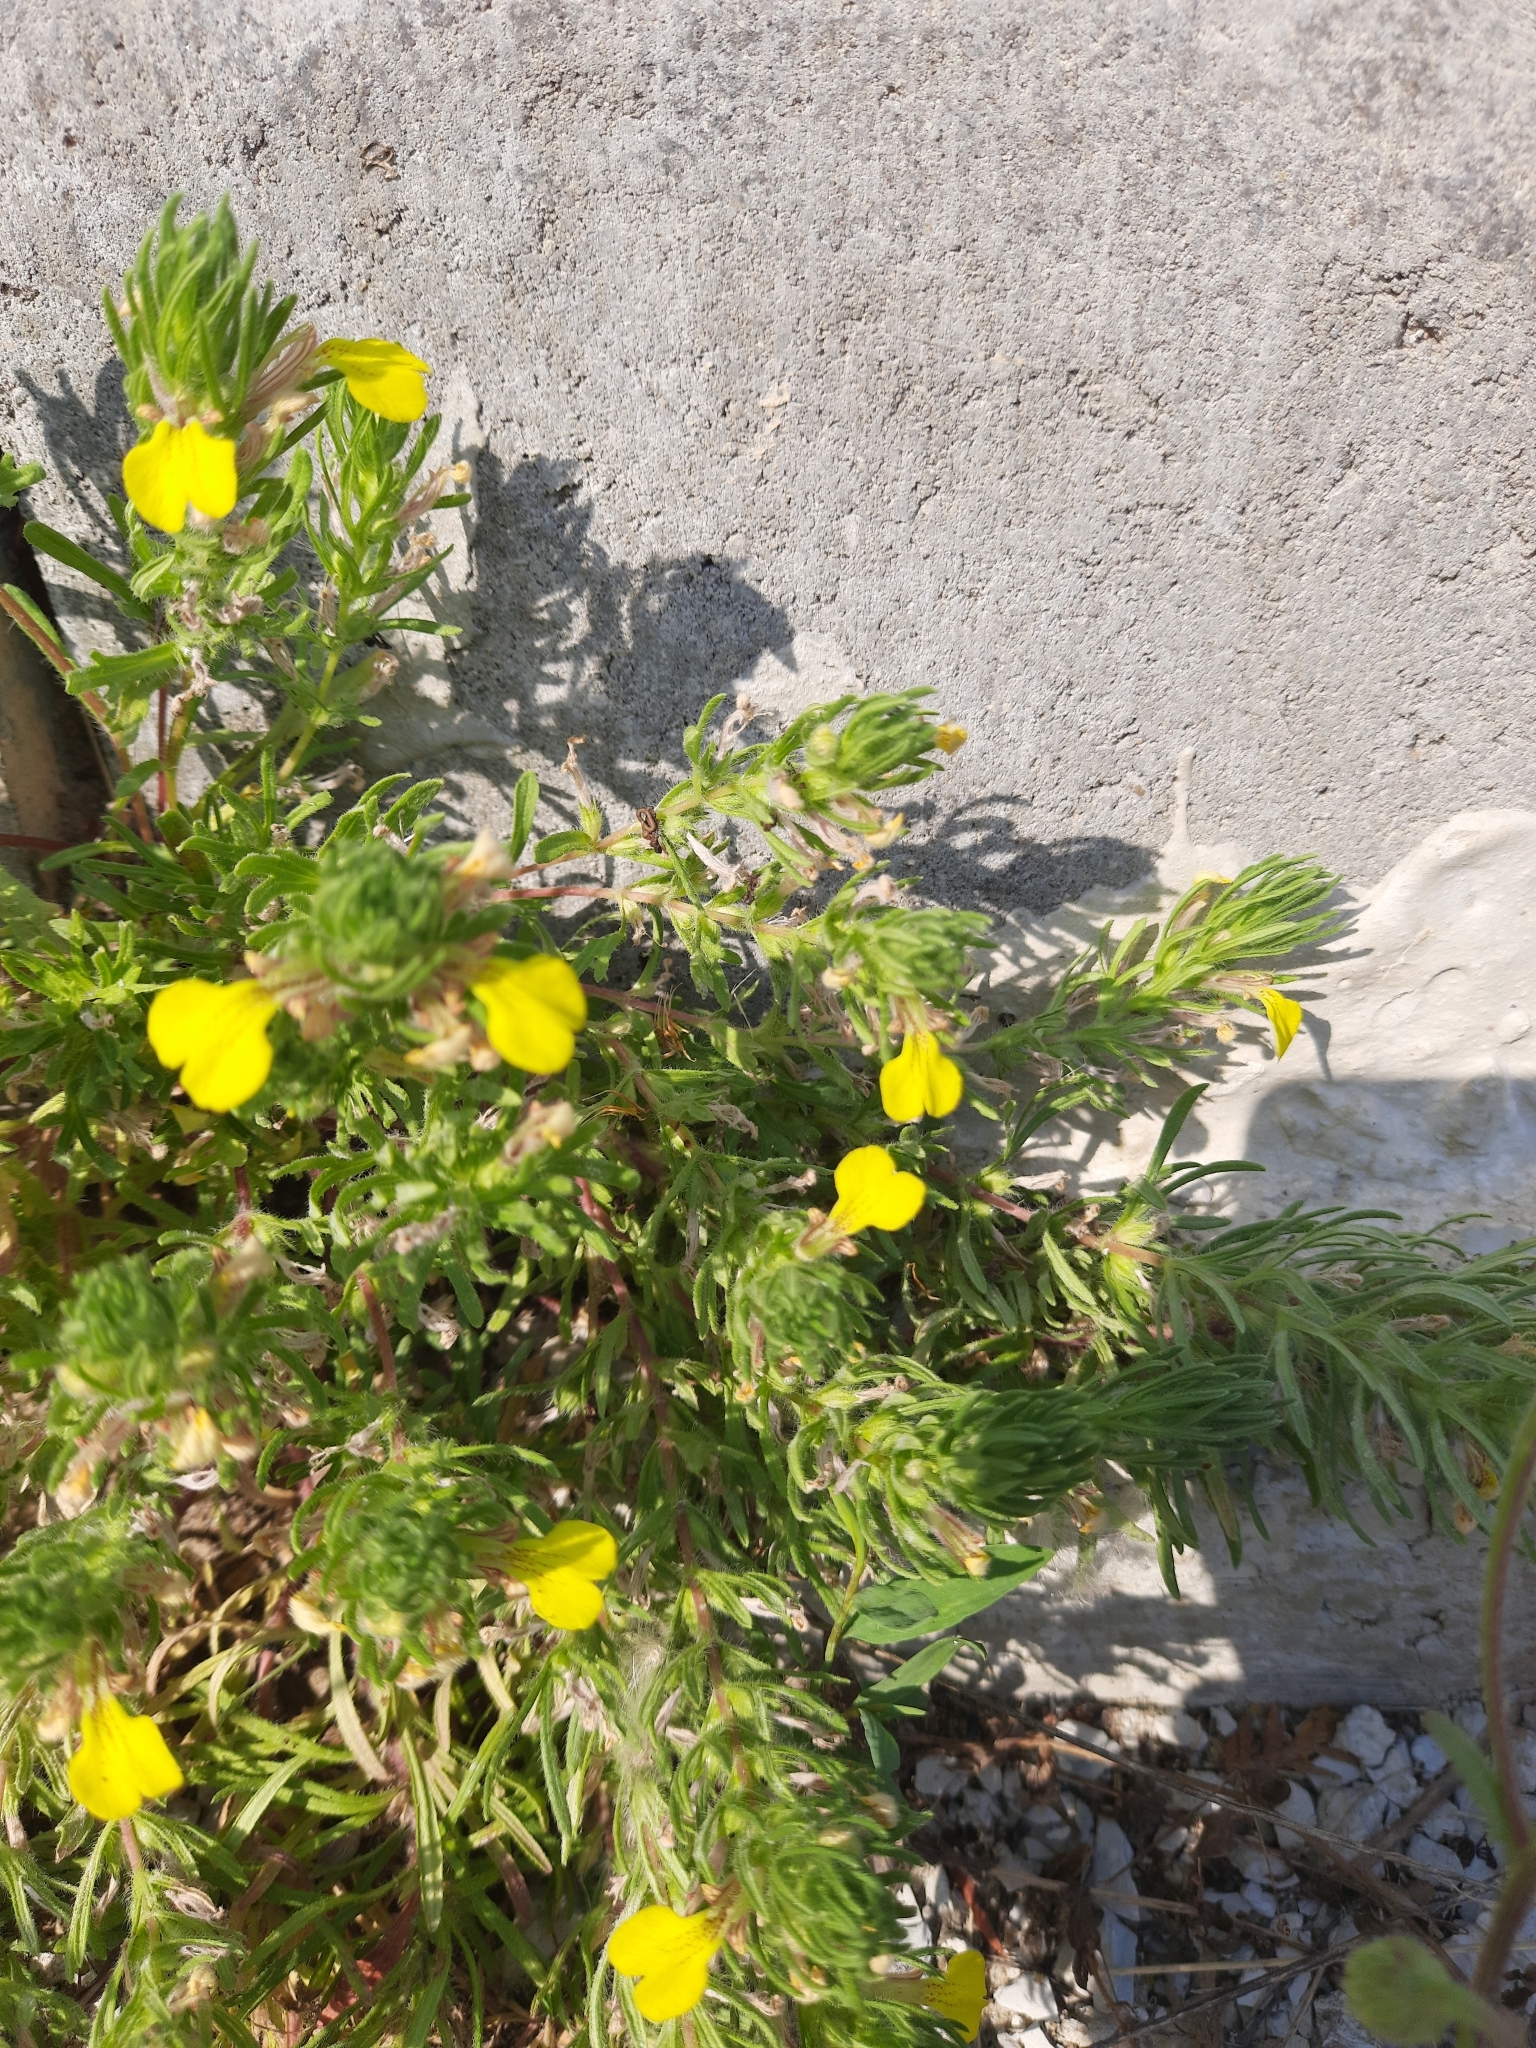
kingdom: Plantae
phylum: Tracheophyta
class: Magnoliopsida
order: Lamiales
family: Lamiaceae
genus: Ajuga
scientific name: Ajuga chamaepitys
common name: Ground-pine
